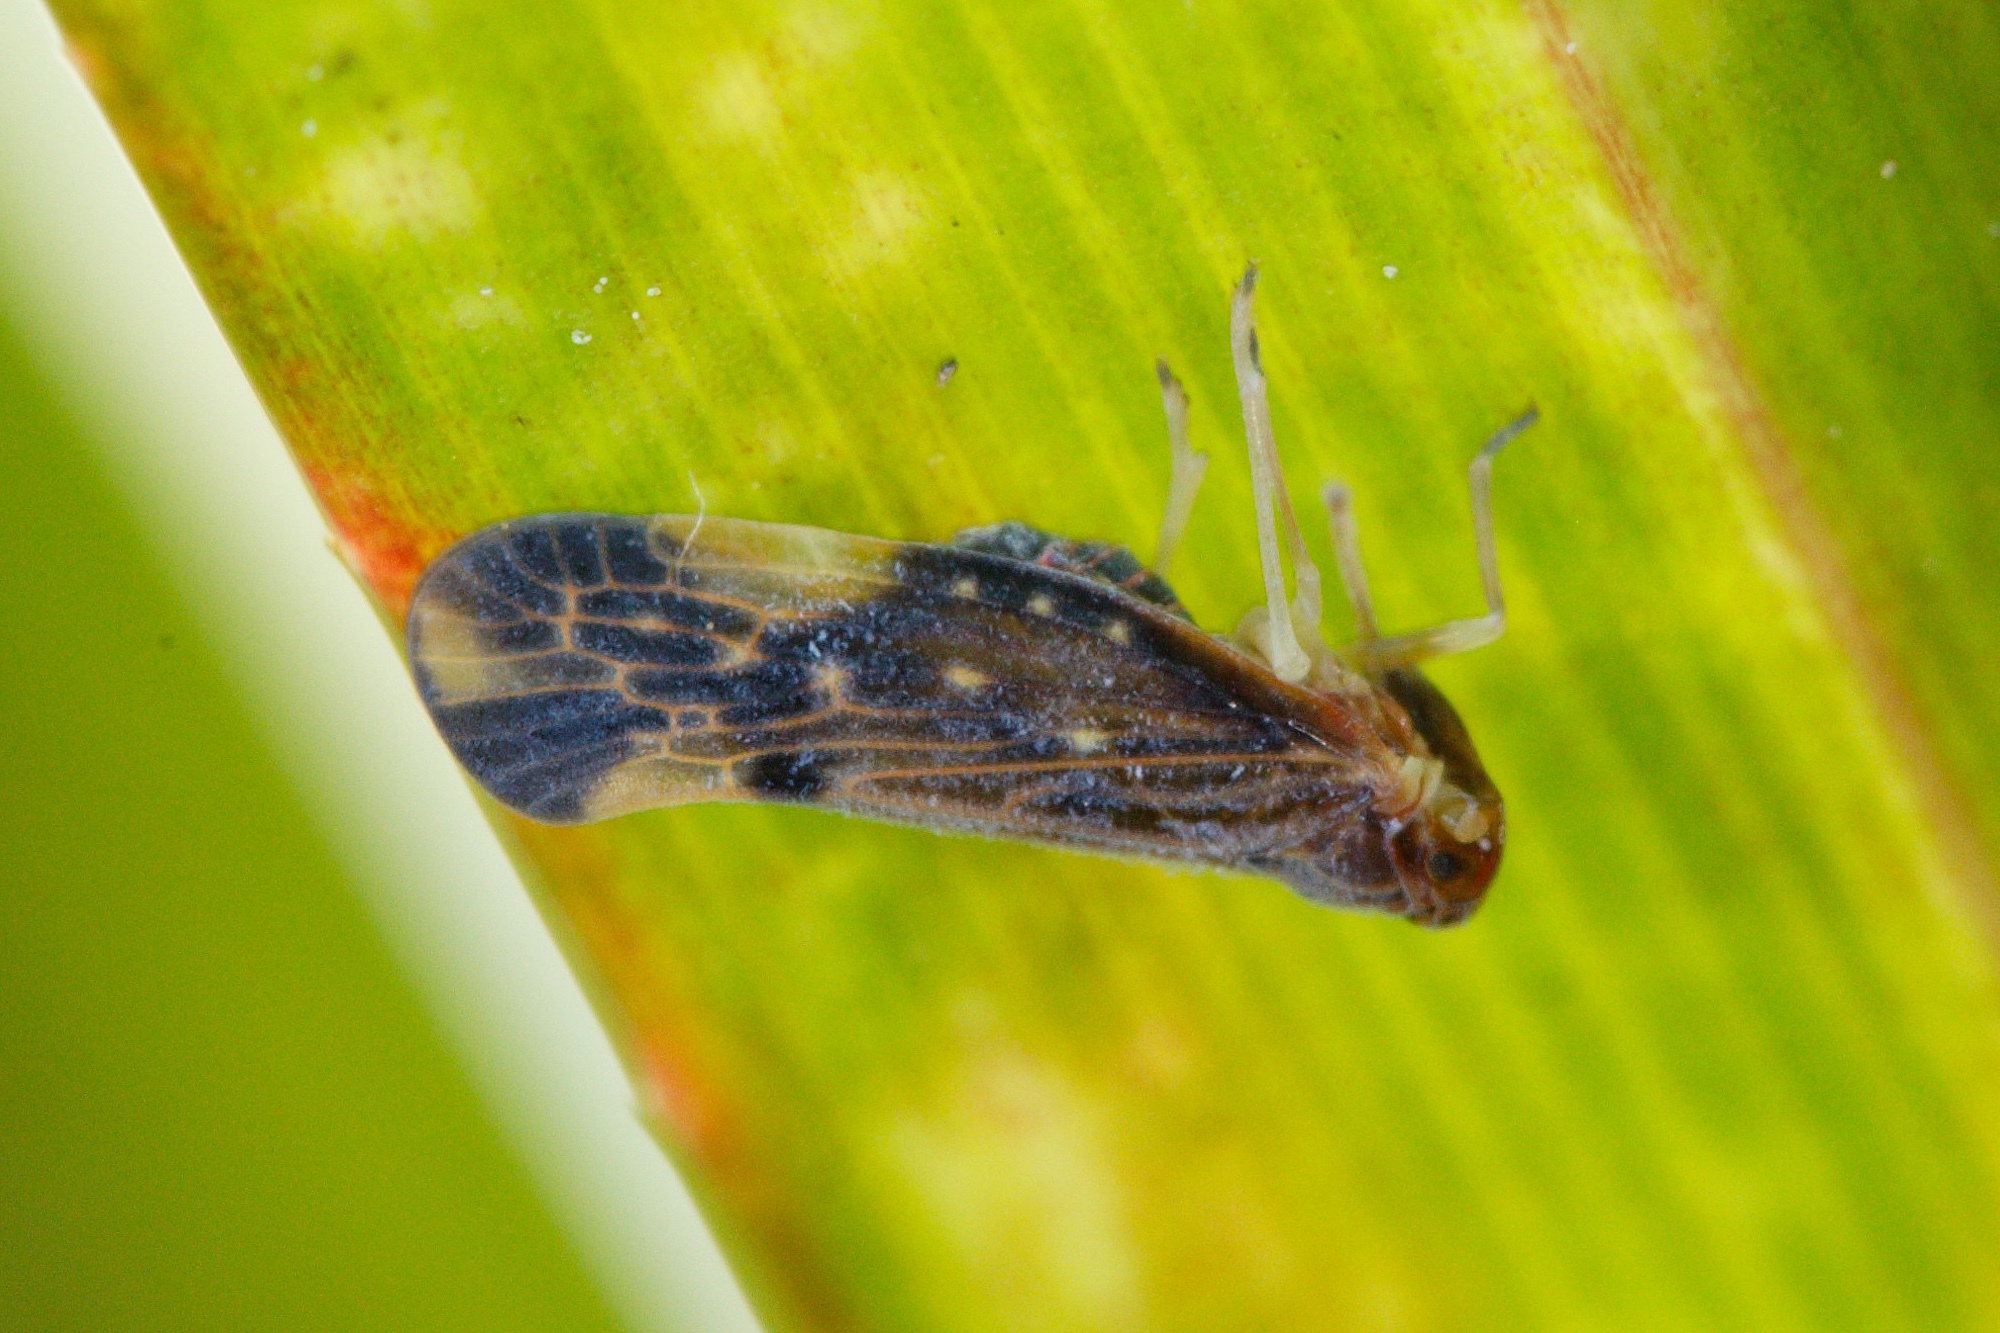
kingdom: Animalia
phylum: Arthropoda
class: Insecta
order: Hemiptera
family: Derbidae
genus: Eocenchrea
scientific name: Eocenchrea maorica
